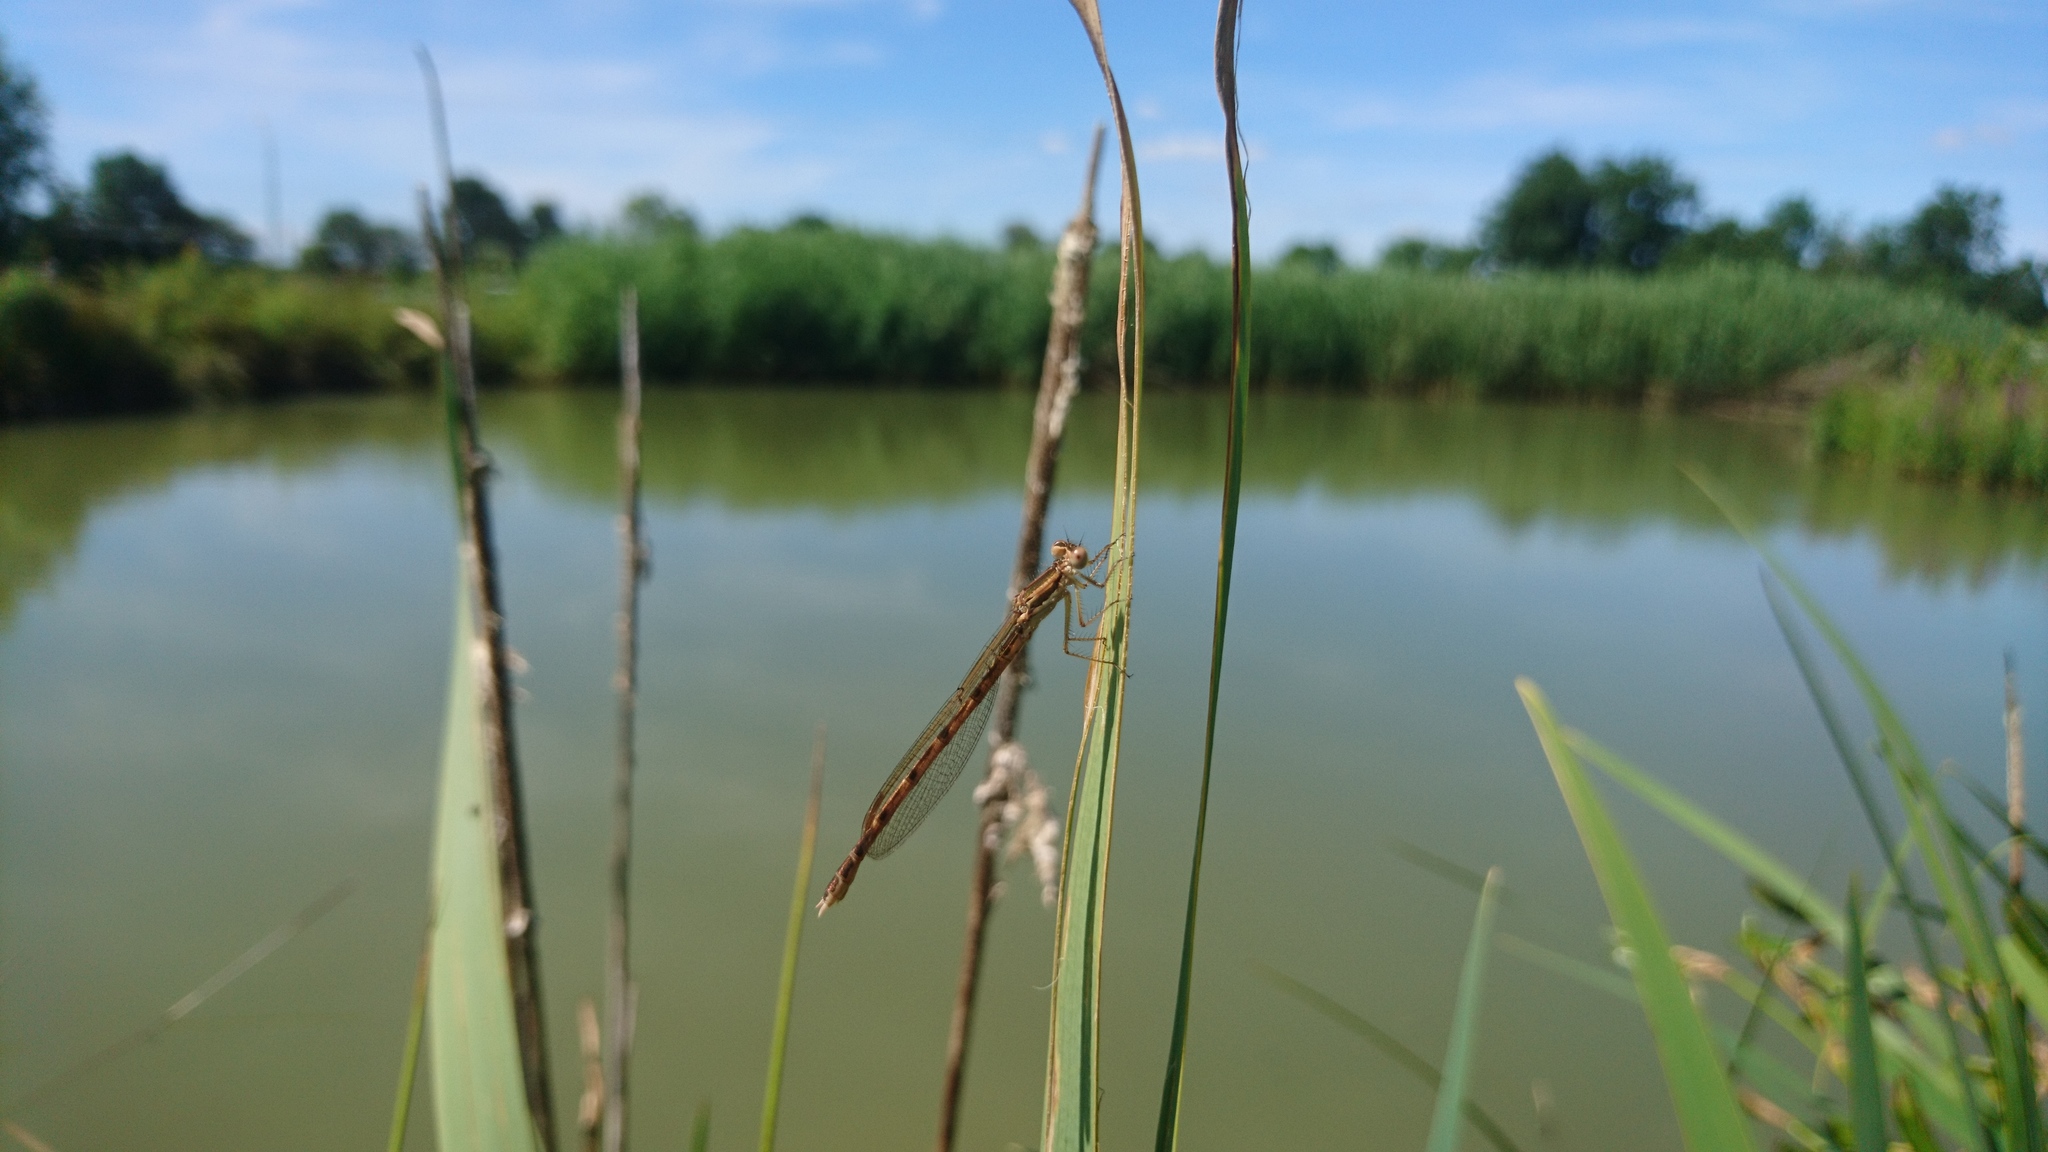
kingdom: Animalia
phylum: Arthropoda
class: Insecta
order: Odonata
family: Lestidae
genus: Sympecma
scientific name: Sympecma fusca
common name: Common winter damsel
